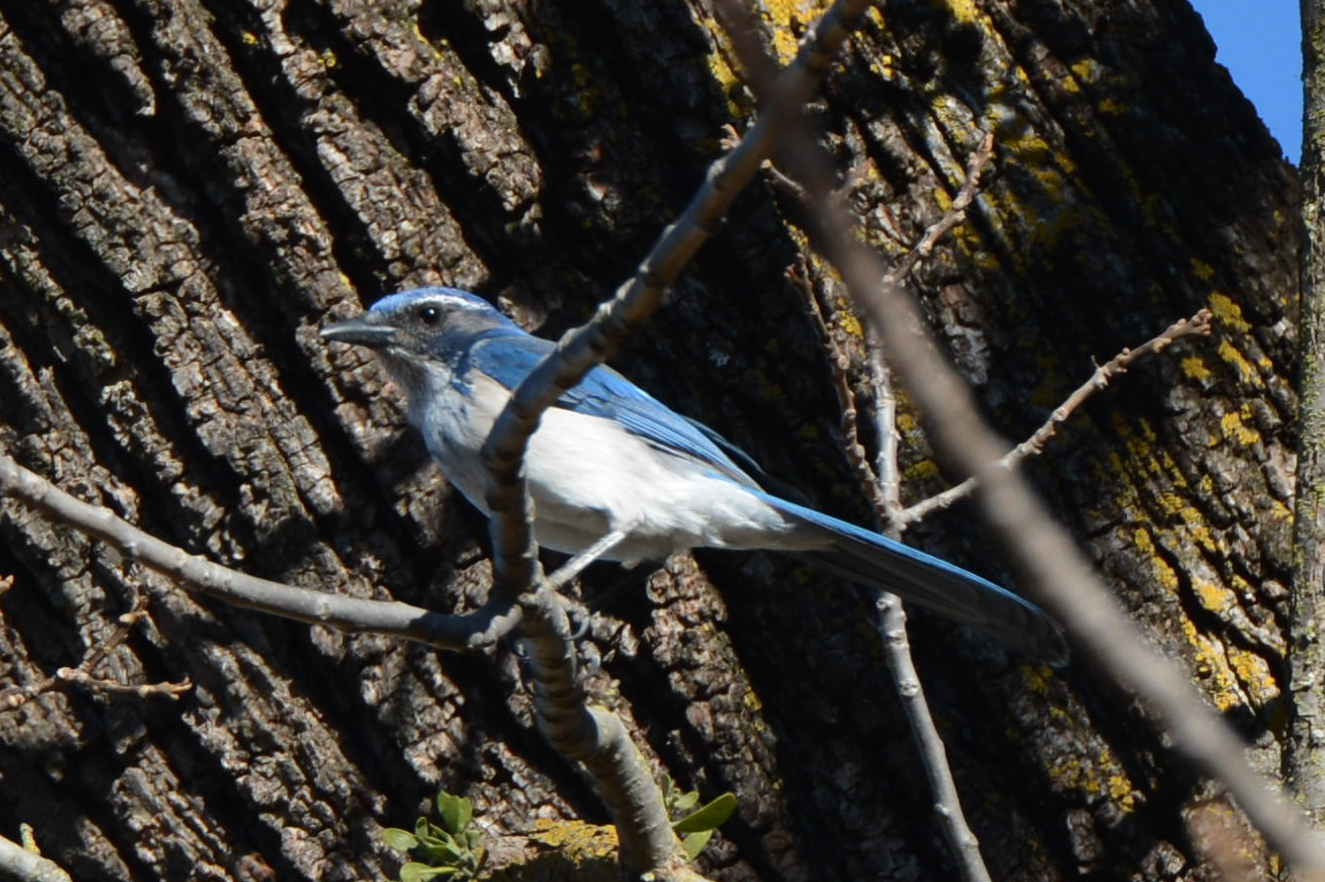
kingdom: Animalia
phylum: Chordata
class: Aves
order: Passeriformes
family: Corvidae
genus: Aphelocoma
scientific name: Aphelocoma californica
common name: California scrub-jay
